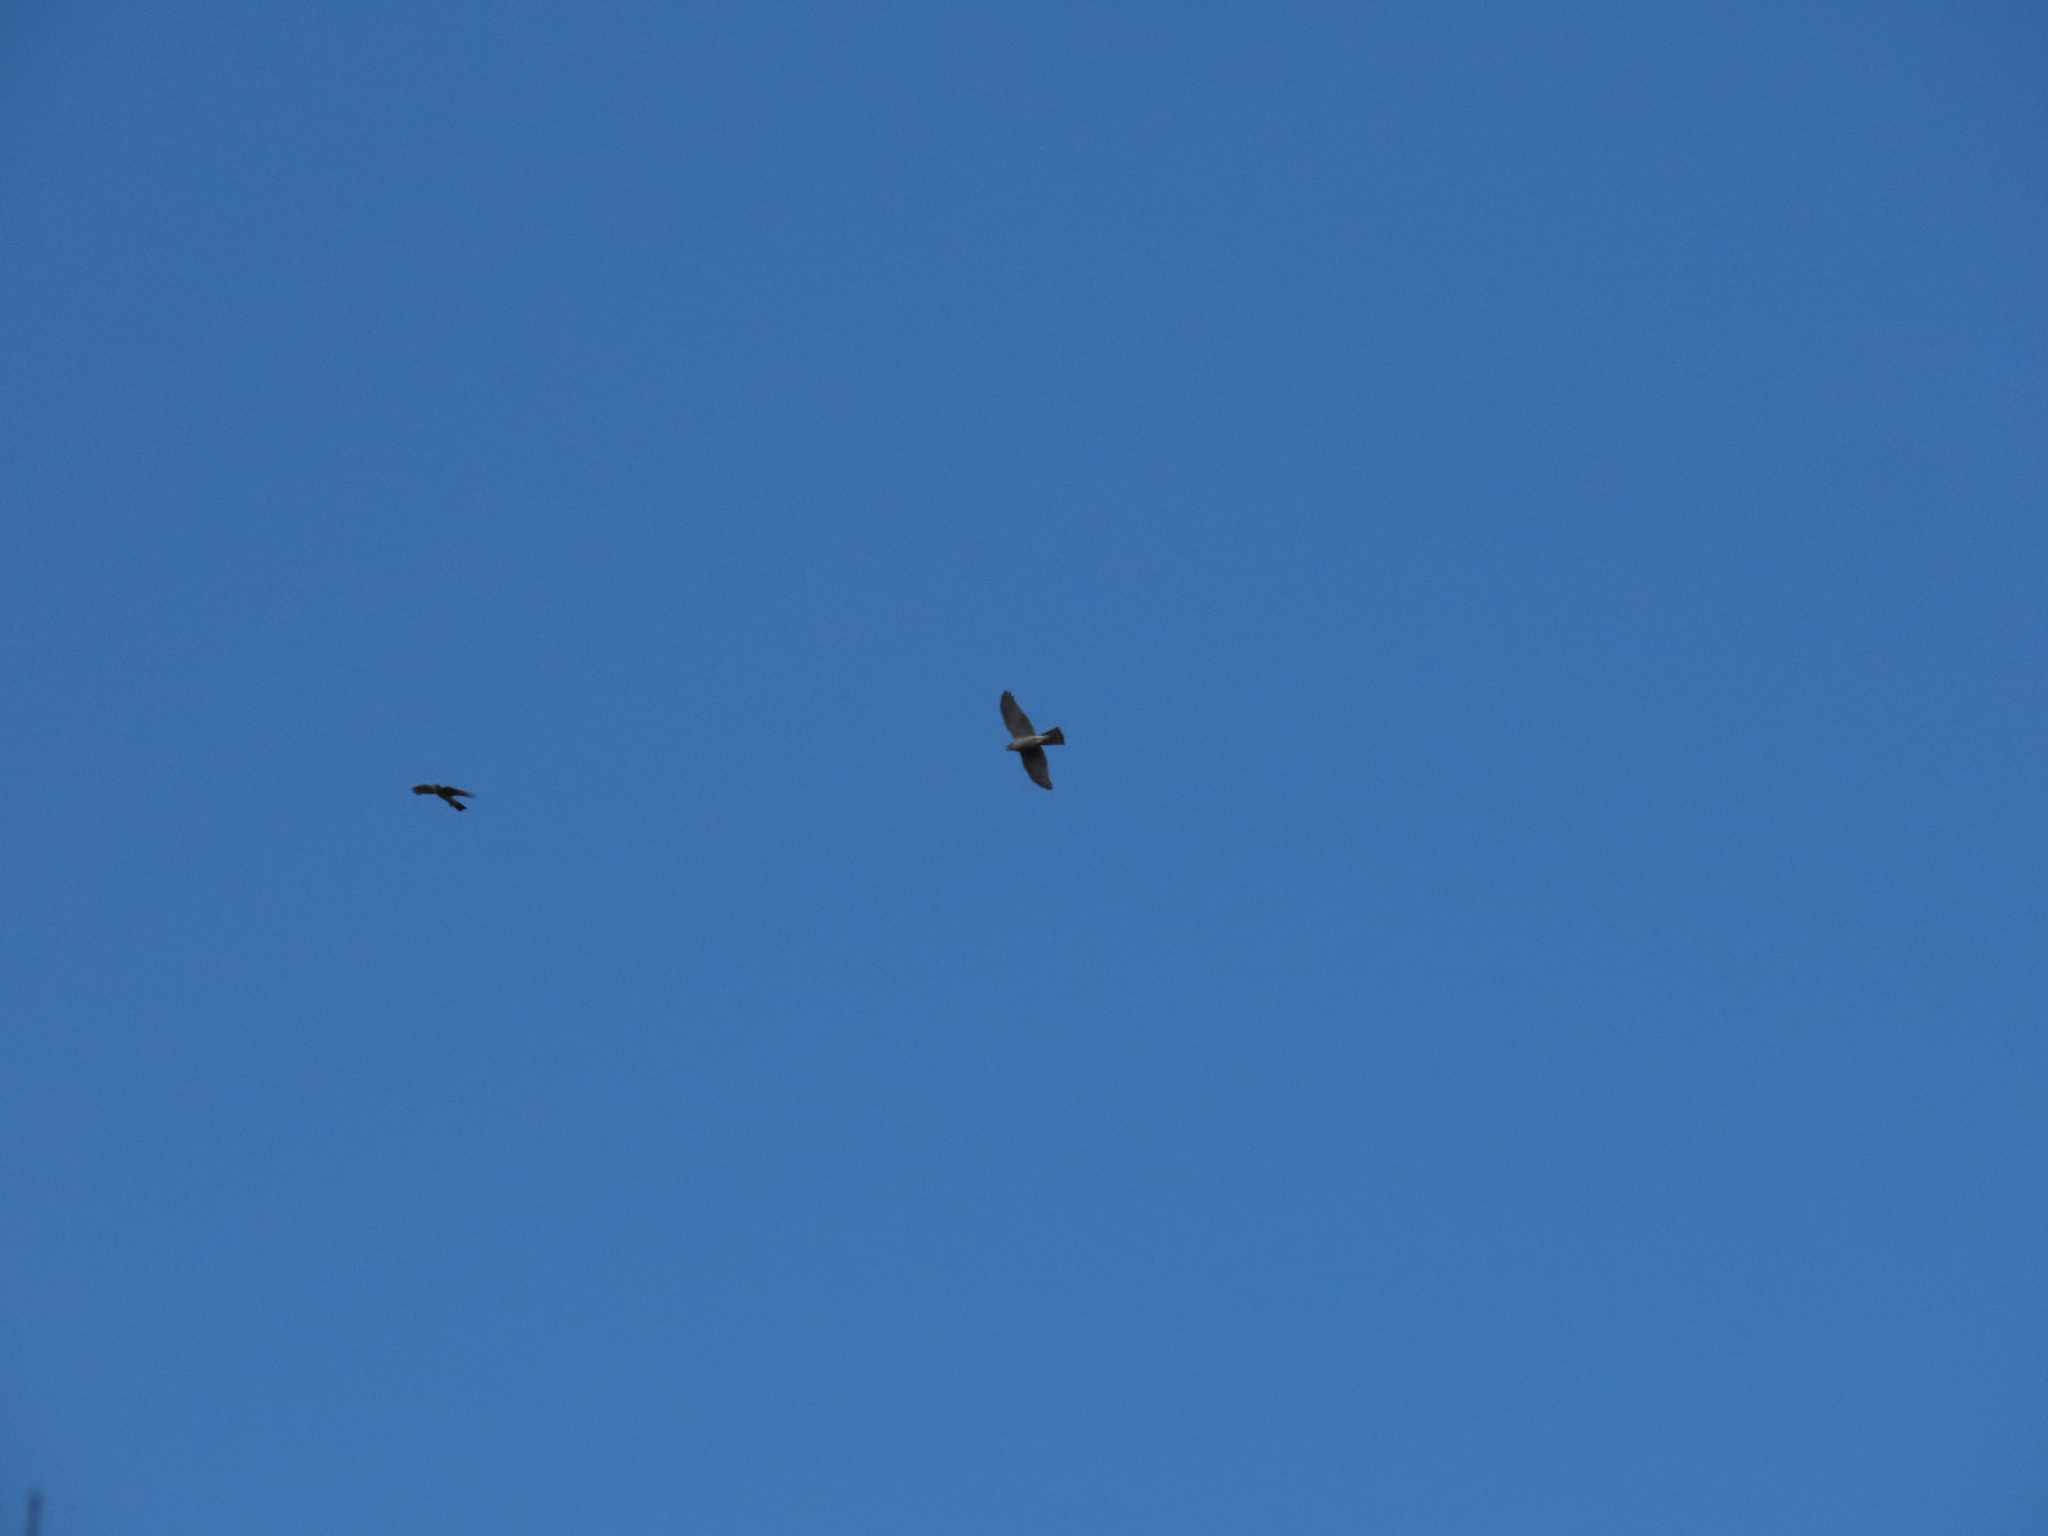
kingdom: Animalia
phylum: Chordata
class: Aves
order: Accipitriformes
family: Accipitridae
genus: Accipiter
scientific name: Accipiter nisus
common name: Eurasian sparrowhawk
